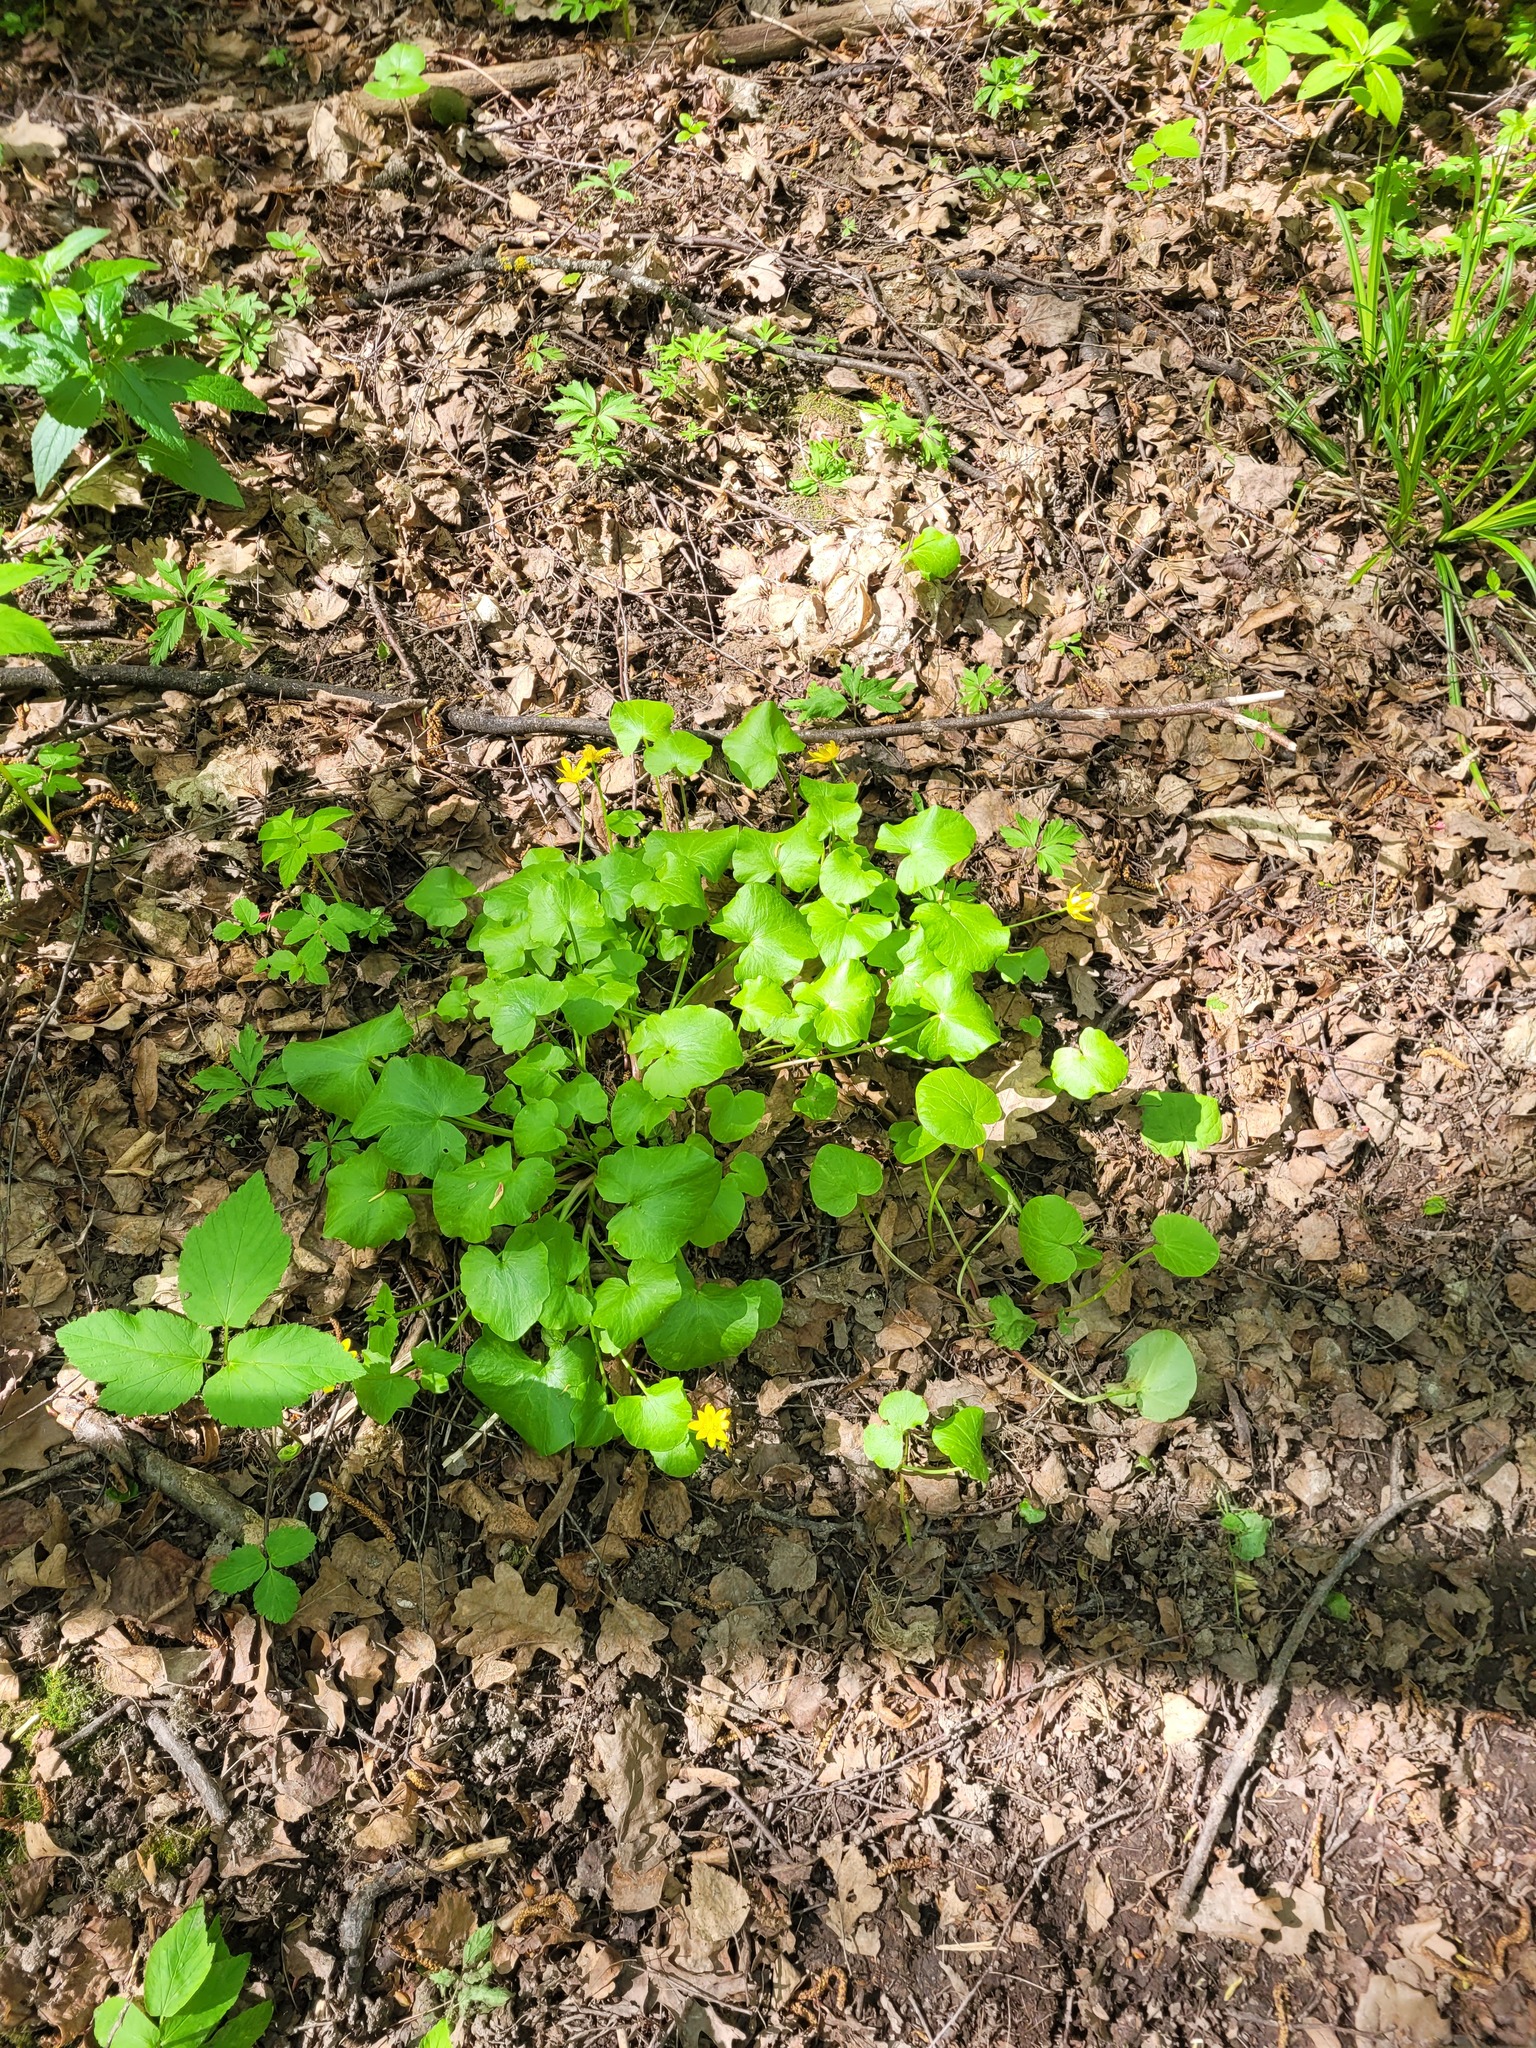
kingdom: Plantae
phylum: Tracheophyta
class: Magnoliopsida
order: Ranunculales
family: Ranunculaceae
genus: Ficaria
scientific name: Ficaria verna
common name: Lesser celandine
